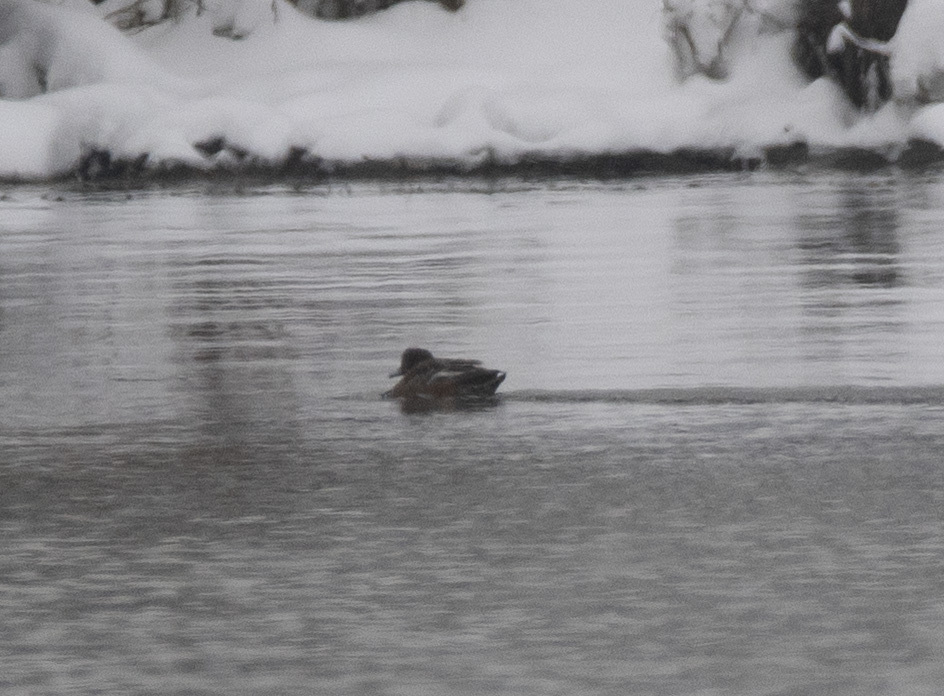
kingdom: Animalia
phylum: Chordata
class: Aves
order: Anseriformes
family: Anatidae
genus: Mareca
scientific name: Mareca penelope
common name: Eurasian wigeon
